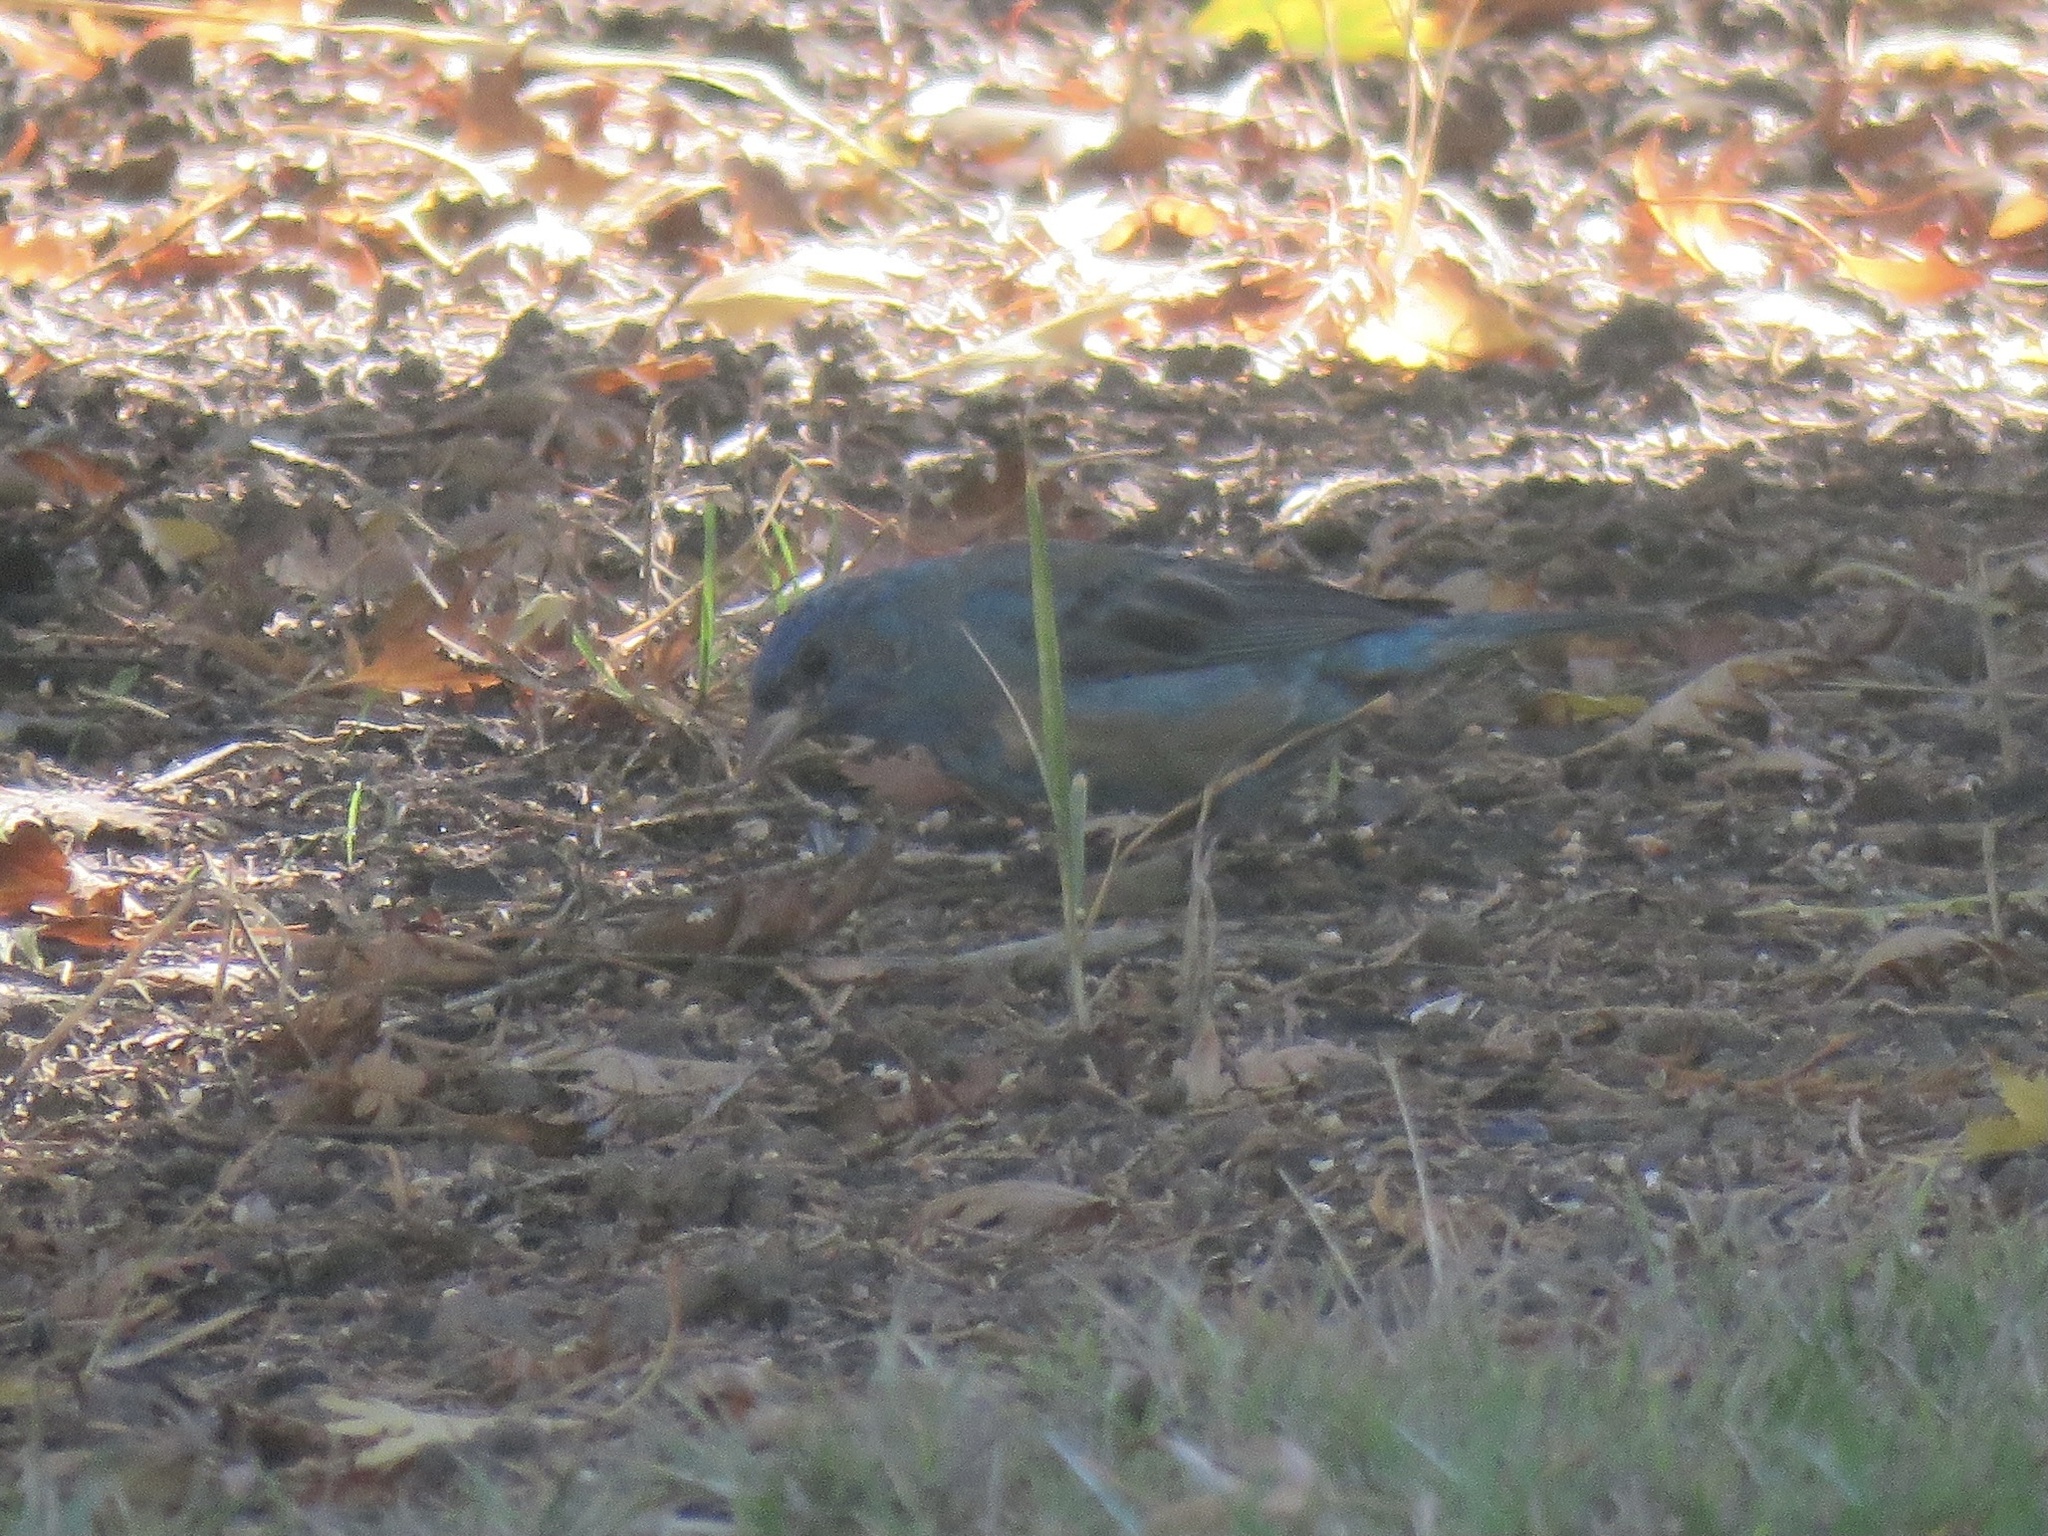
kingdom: Animalia
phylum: Chordata
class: Aves
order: Passeriformes
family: Cardinalidae
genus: Passerina
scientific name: Passerina cyanea
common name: Indigo bunting
